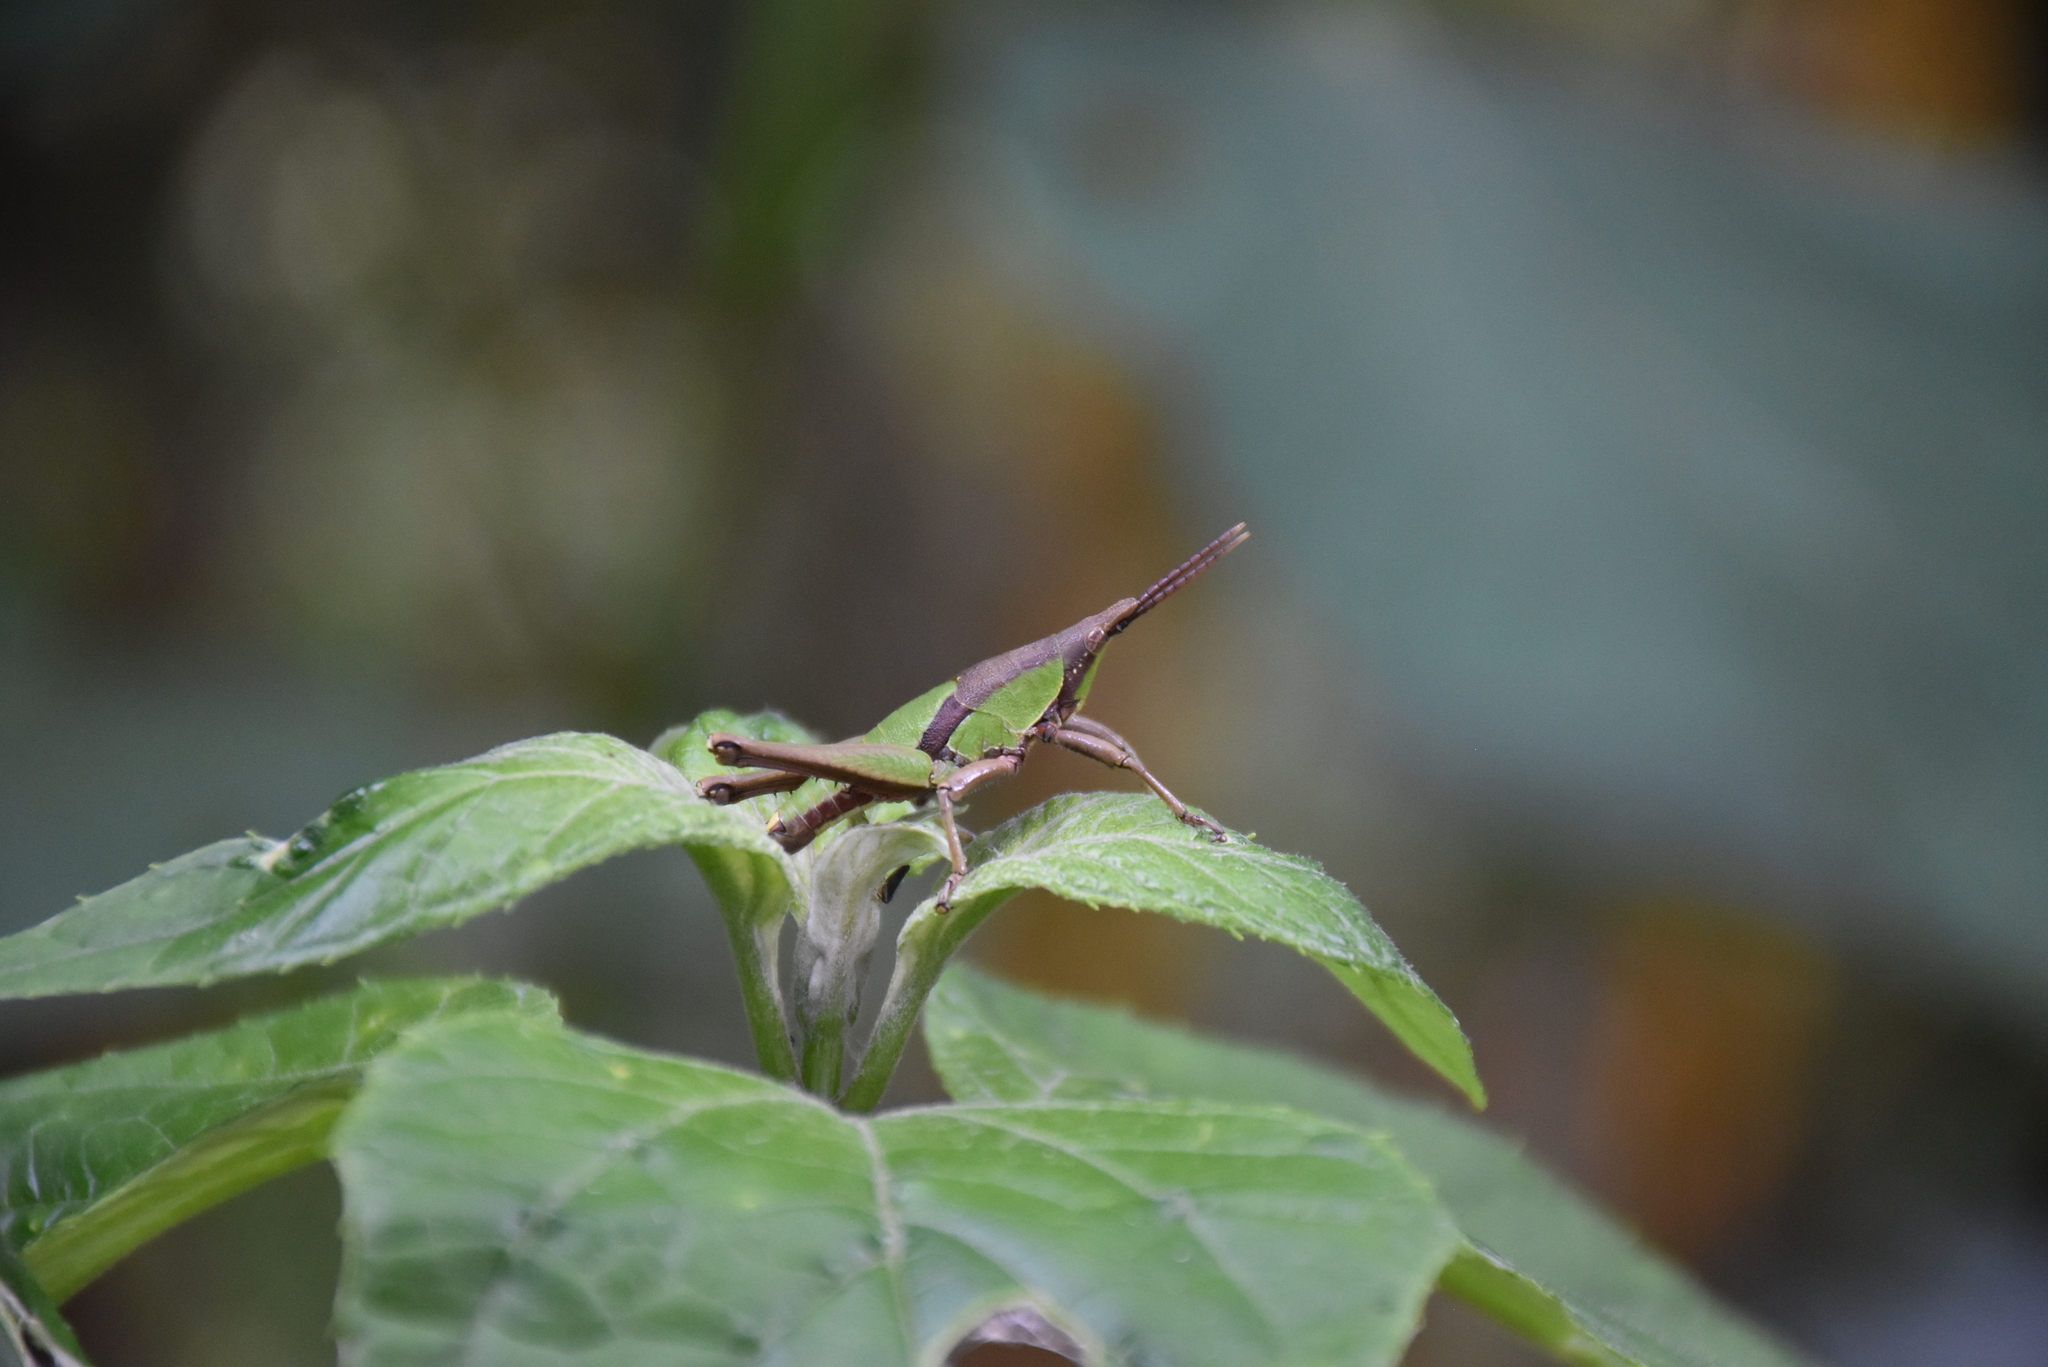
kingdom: Animalia
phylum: Arthropoda
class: Insecta
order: Orthoptera
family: Pyrgomorphidae
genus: Prosphena
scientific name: Prosphena scudderi
